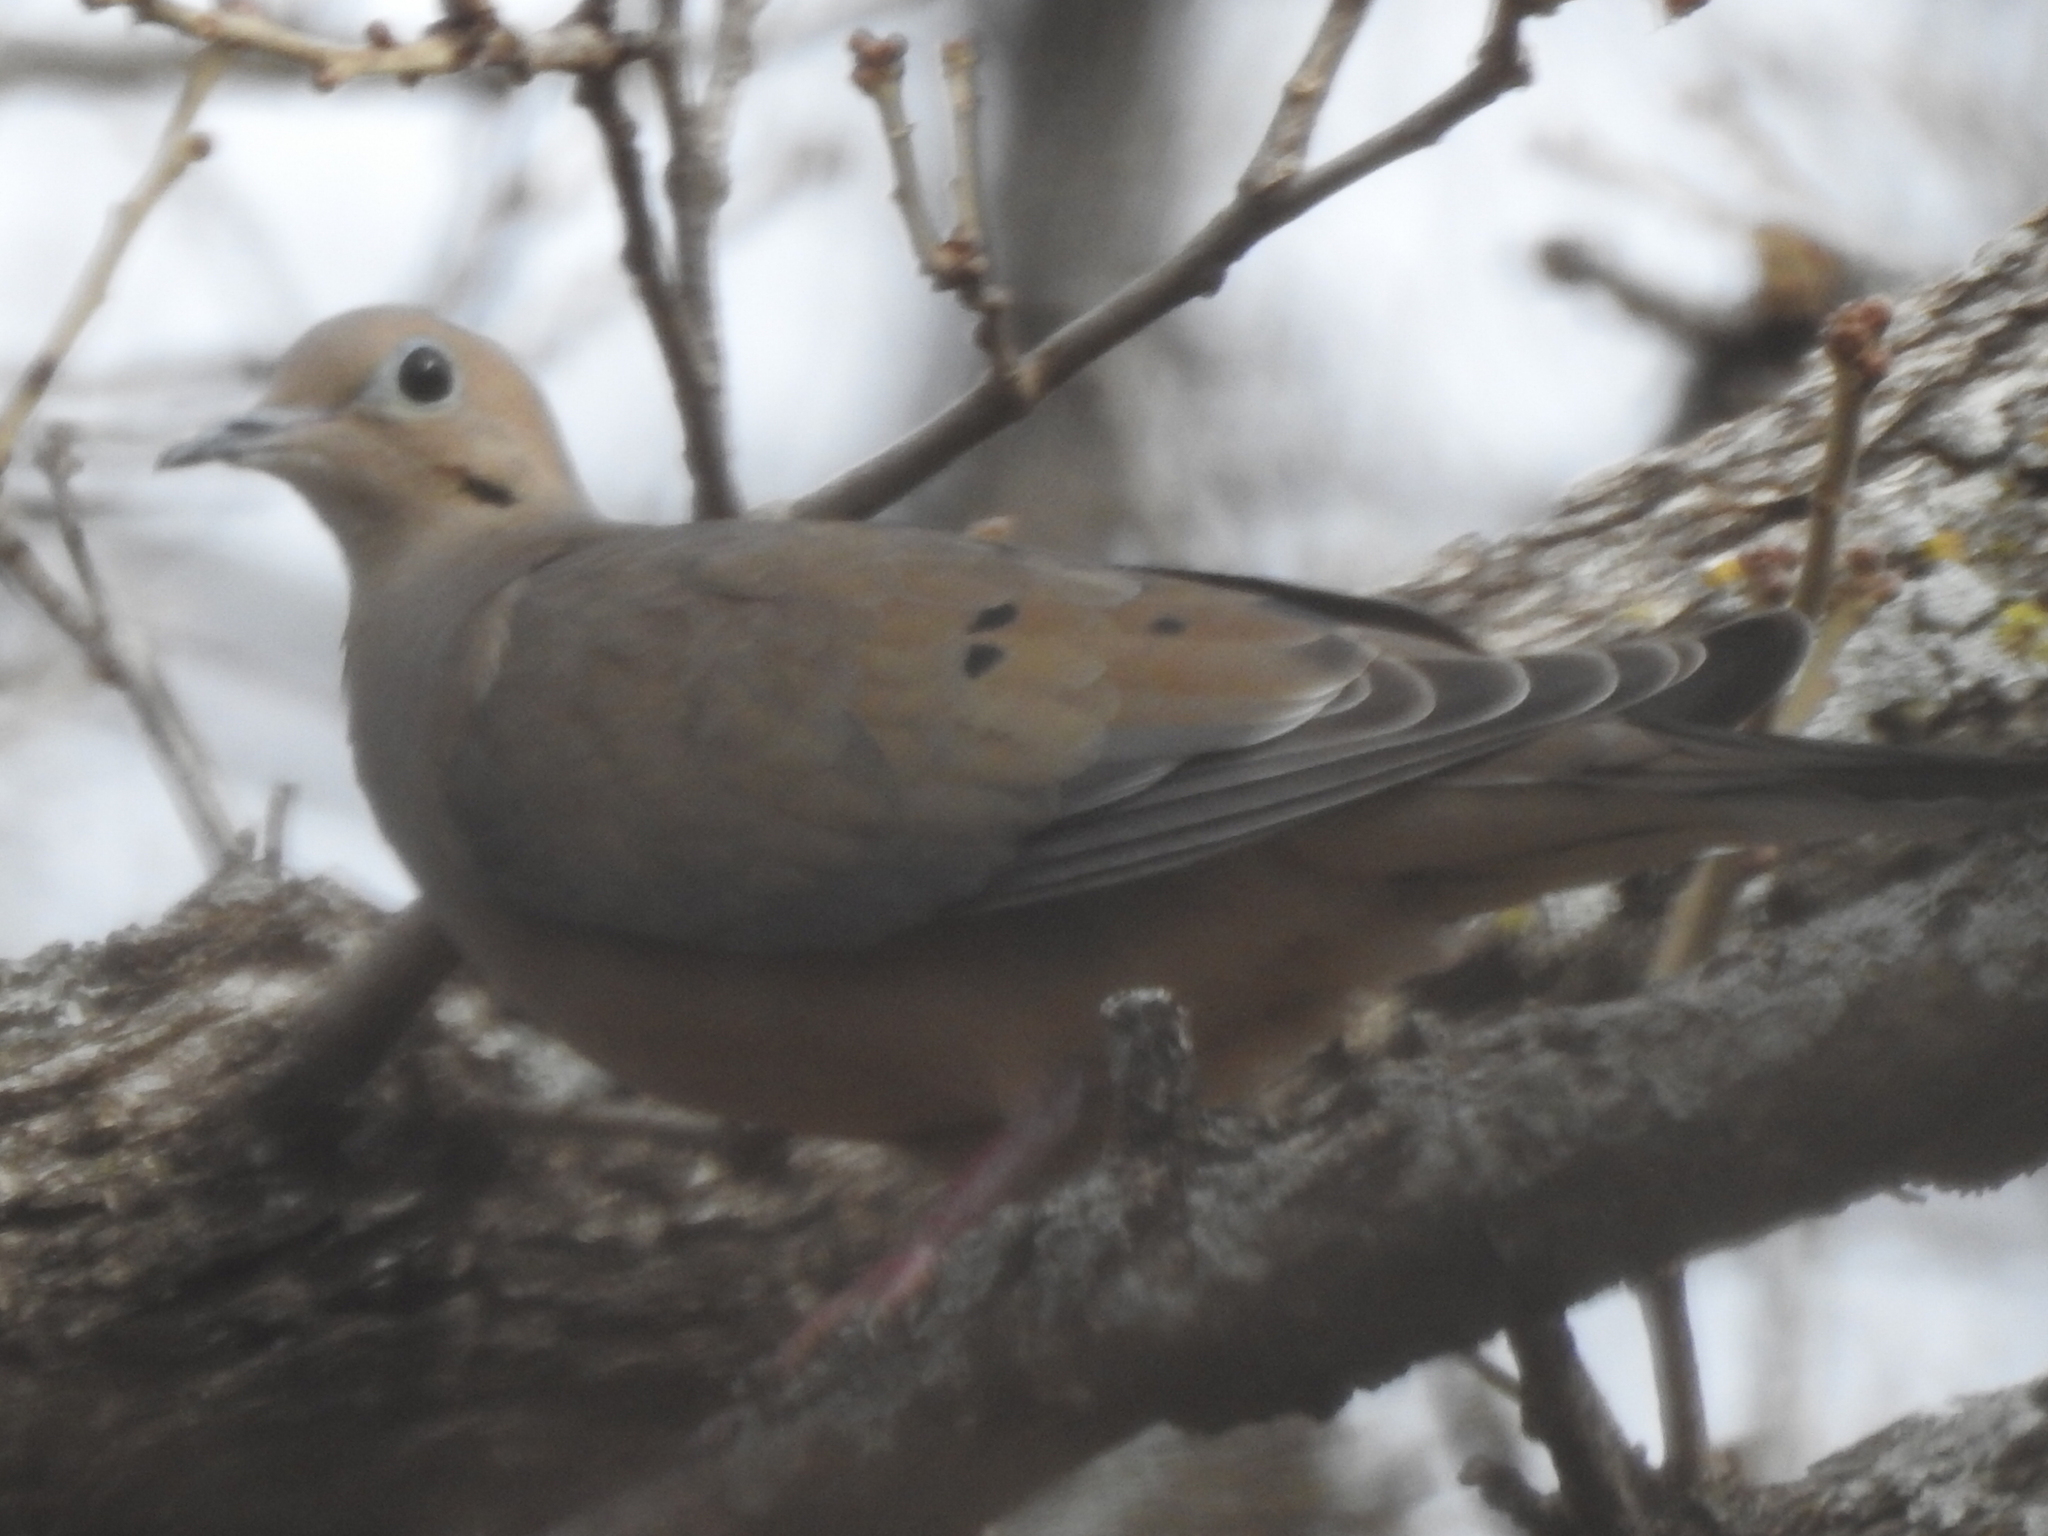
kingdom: Animalia
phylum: Chordata
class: Aves
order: Columbiformes
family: Columbidae
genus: Zenaida
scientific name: Zenaida macroura
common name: Mourning dove
